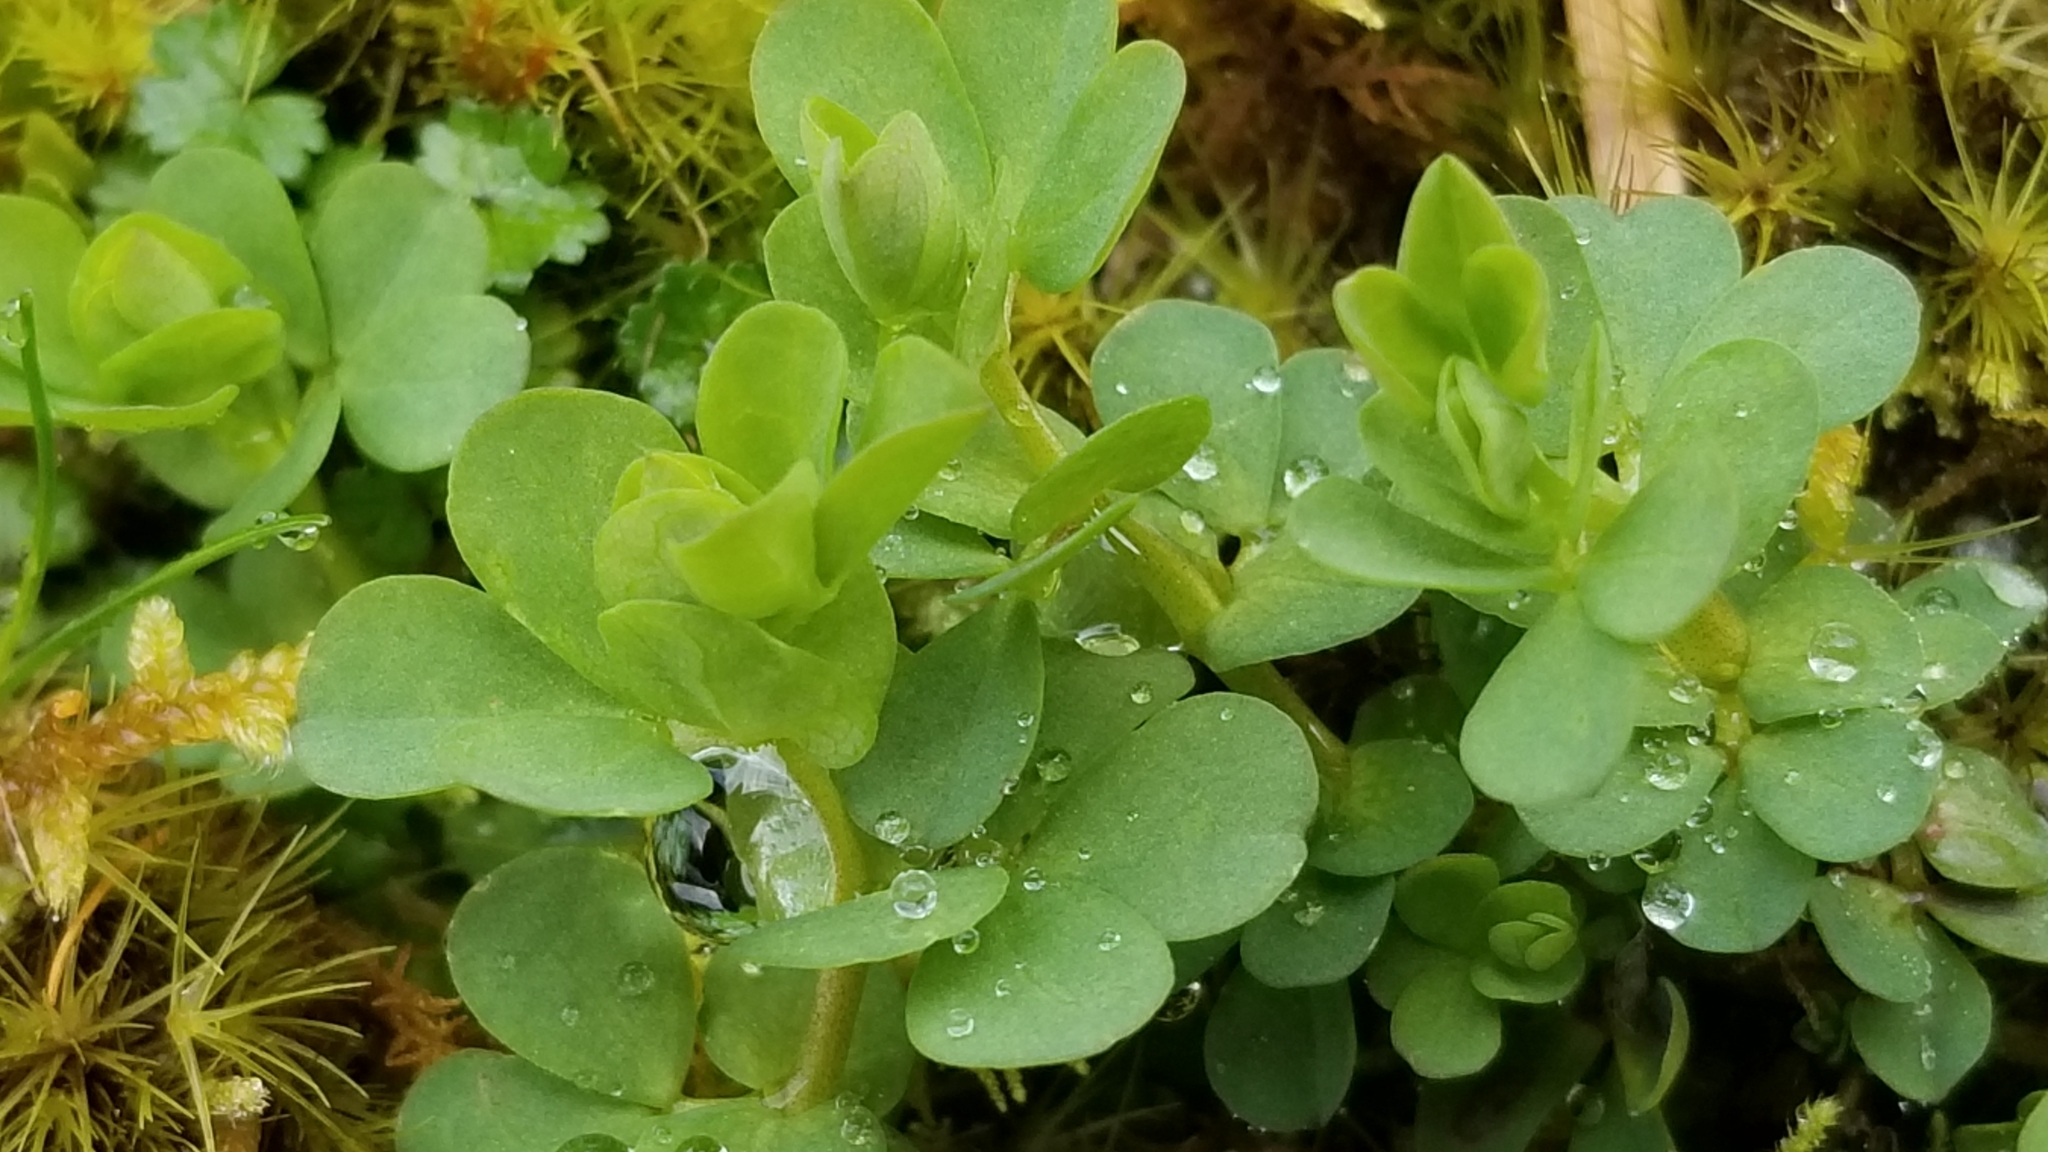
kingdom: Plantae
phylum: Tracheophyta
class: Magnoliopsida
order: Fabales
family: Fabaceae
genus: Lotus
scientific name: Lotus pedunculatus
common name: Greater birdsfoot-trefoil
